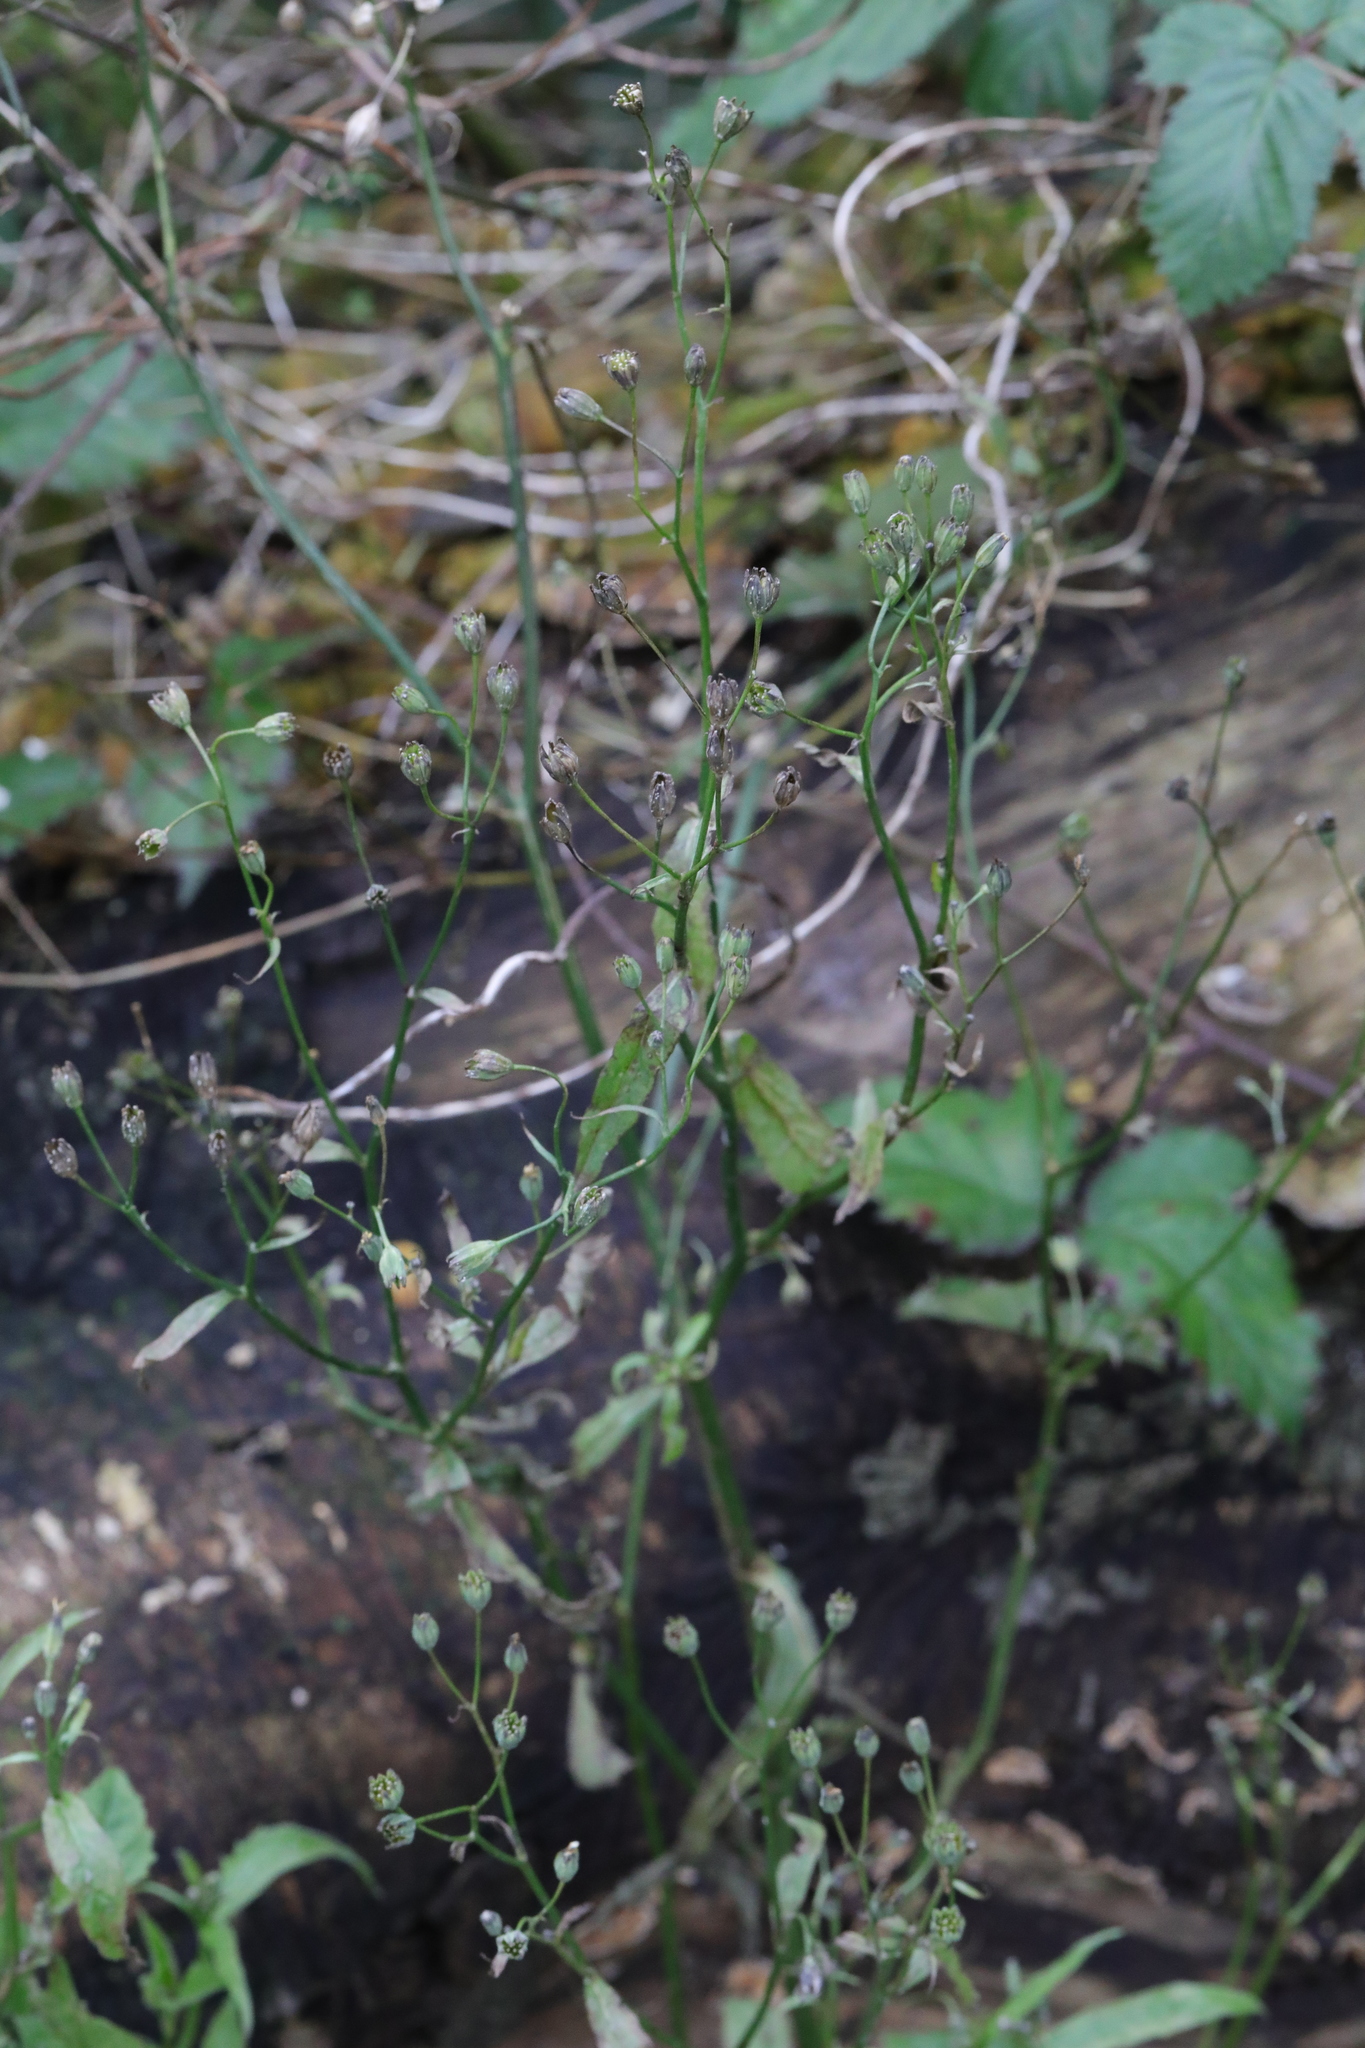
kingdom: Plantae
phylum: Tracheophyta
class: Magnoliopsida
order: Asterales
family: Asteraceae
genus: Lapsana
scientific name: Lapsana communis
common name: Nipplewort
